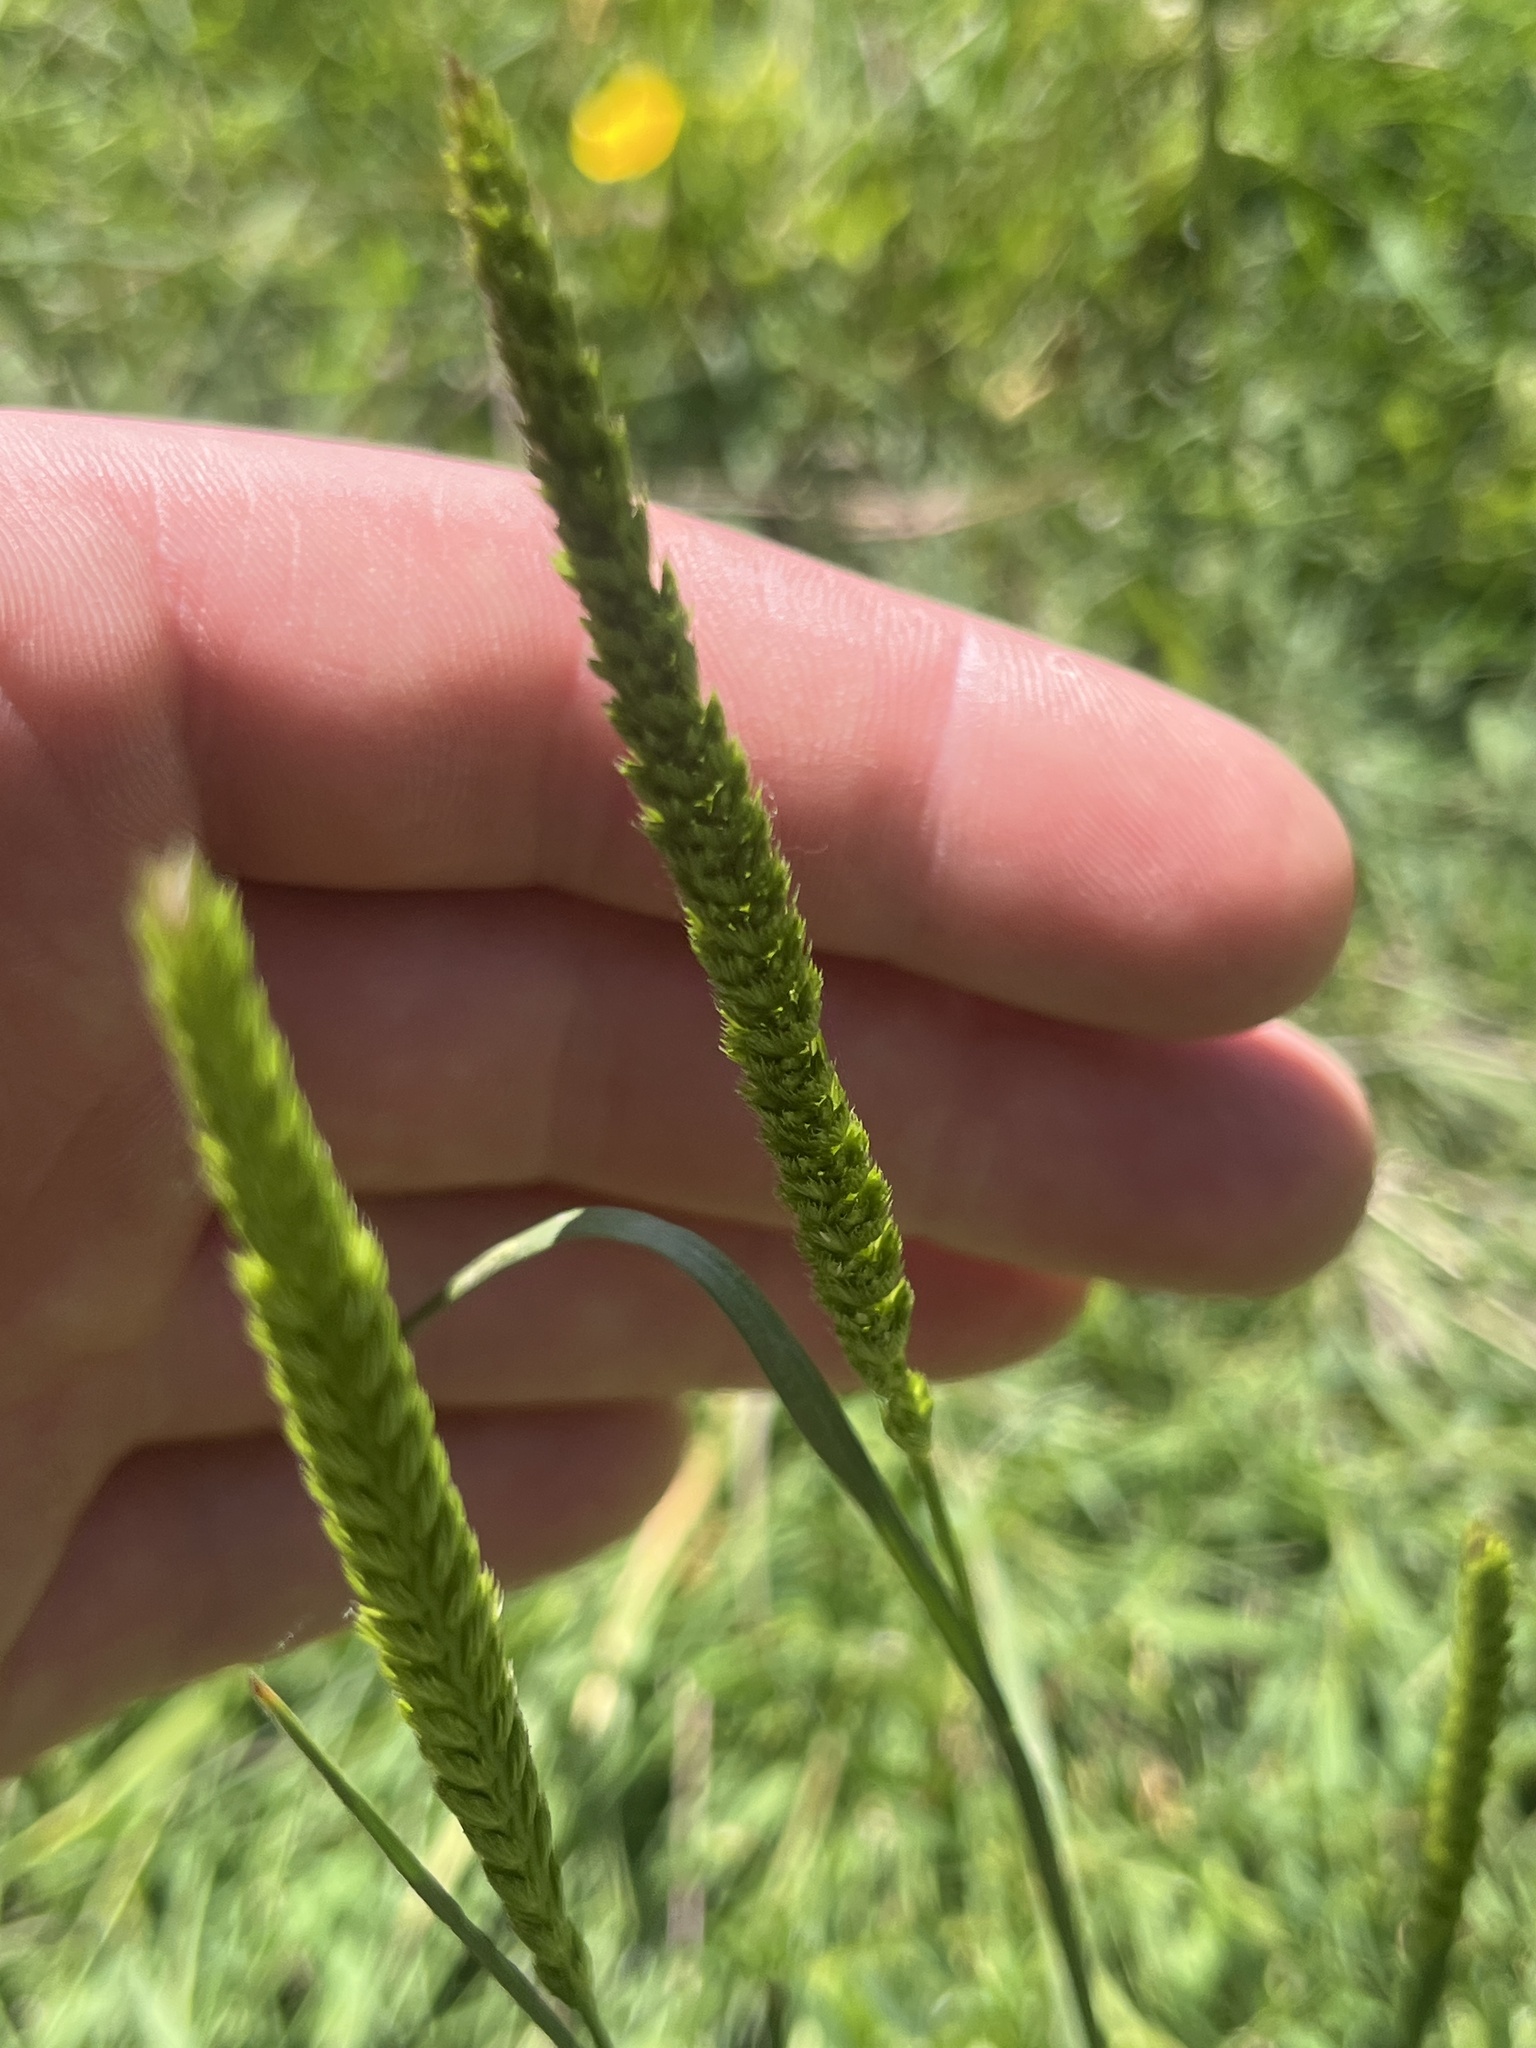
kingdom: Plantae
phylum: Tracheophyta
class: Liliopsida
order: Poales
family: Poaceae
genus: Cynosurus
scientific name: Cynosurus cristatus
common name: Crested dog's-tail
